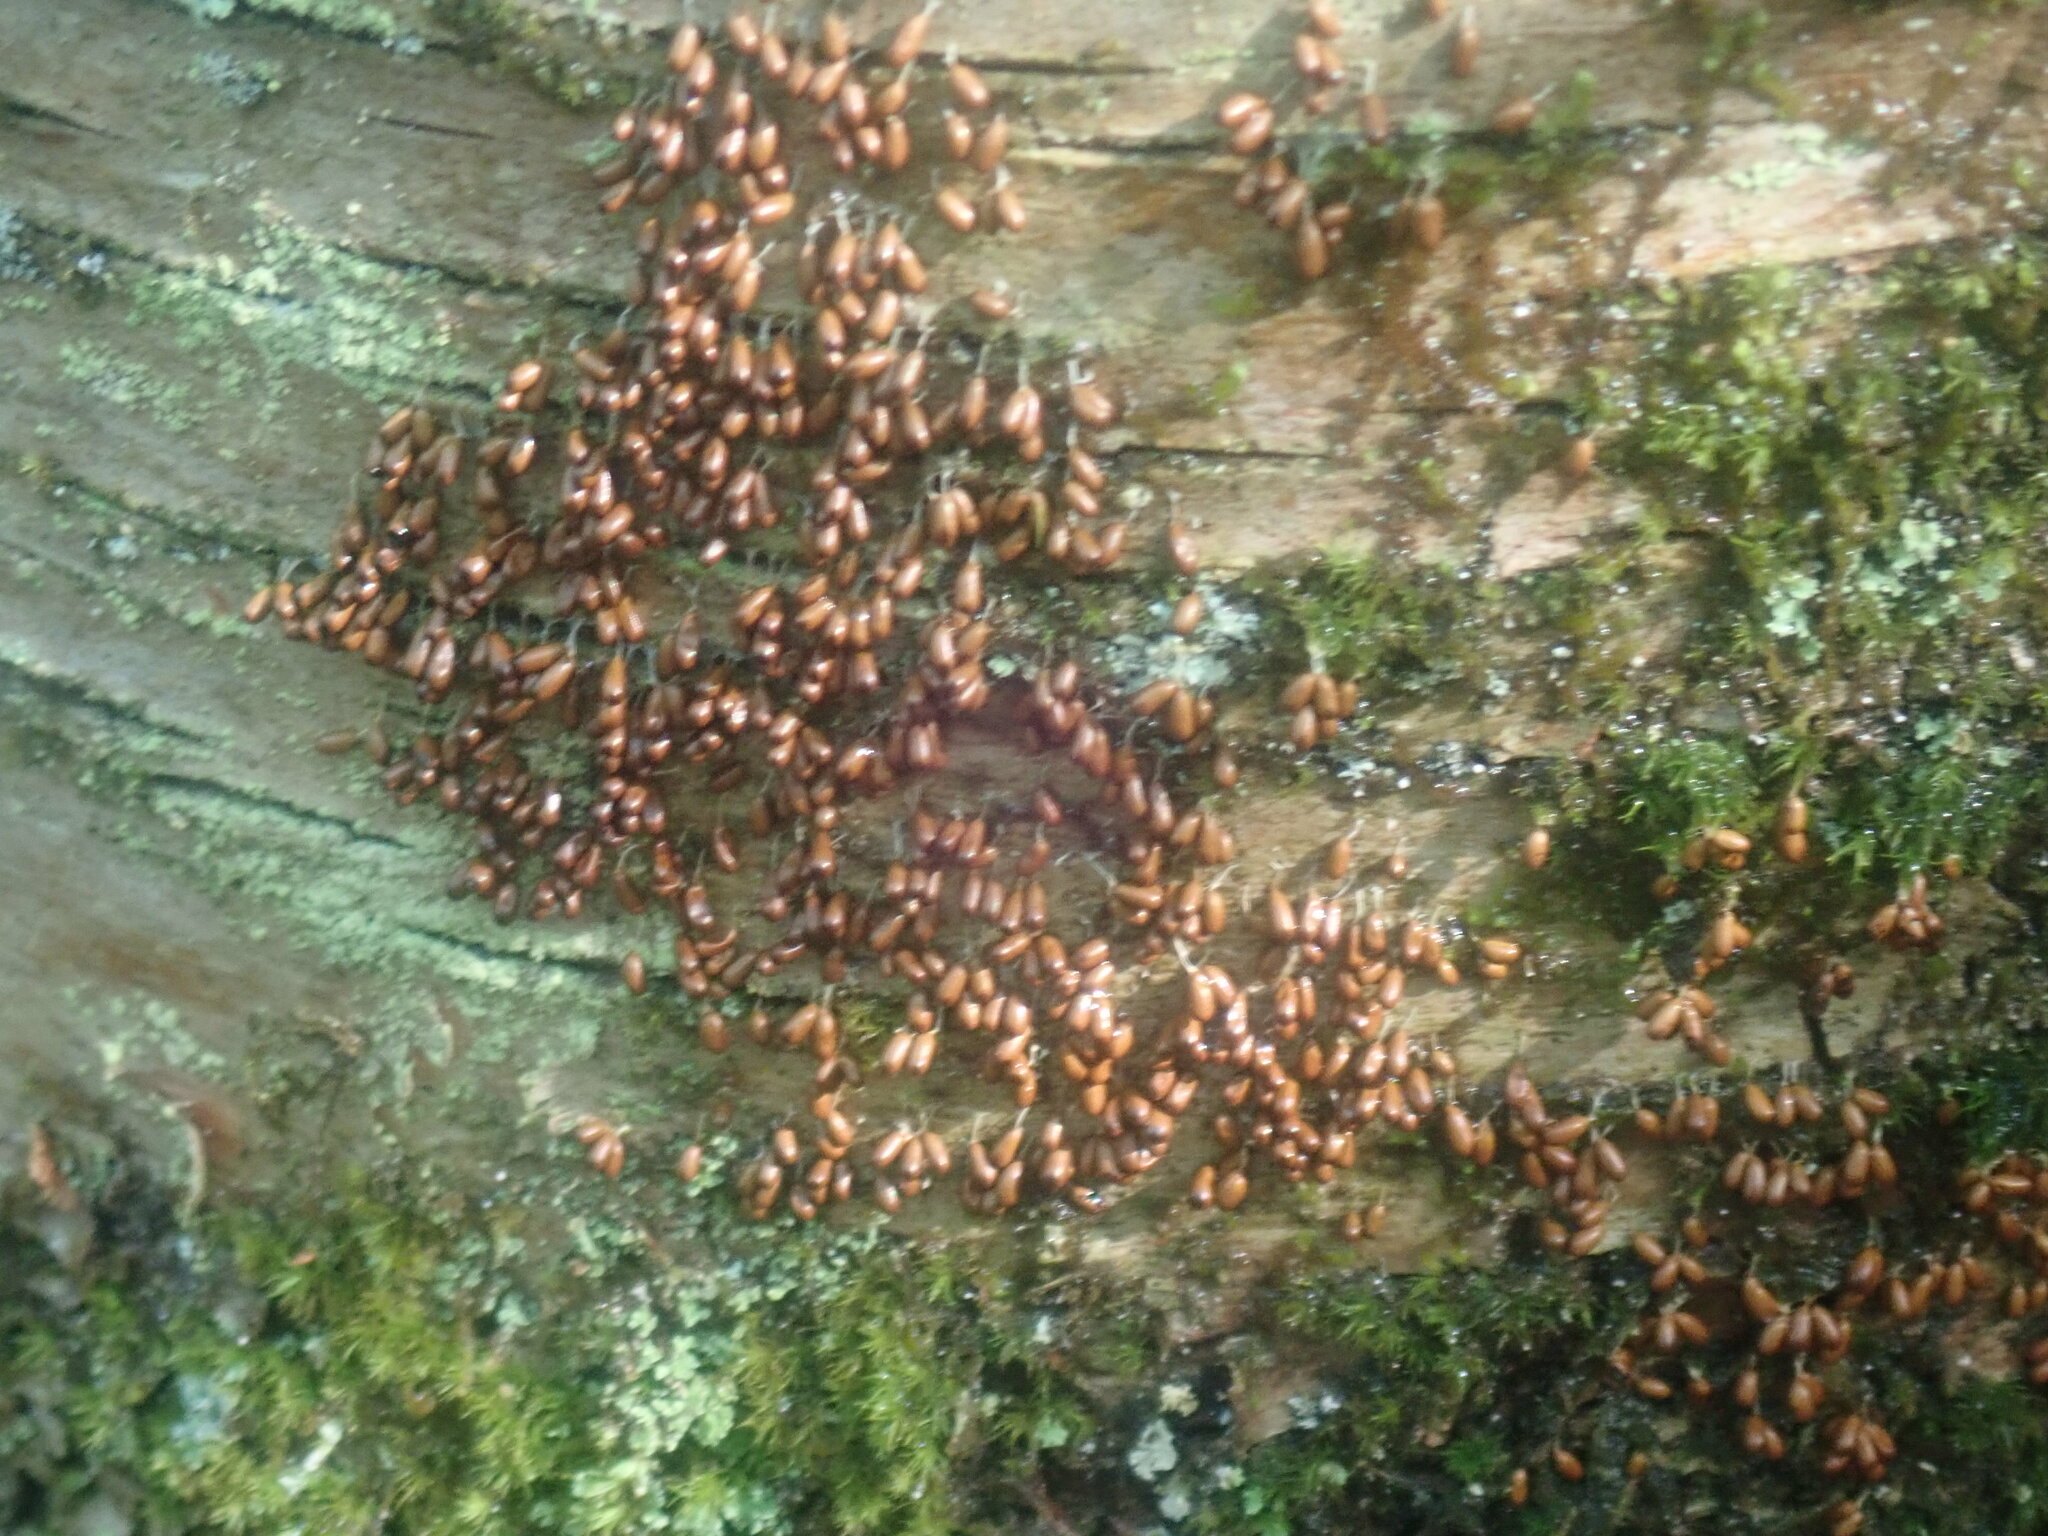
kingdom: Protozoa
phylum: Mycetozoa
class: Myxomycetes
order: Physarales
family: Physaraceae
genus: Leocarpus
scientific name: Leocarpus fragilis
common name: Insect-egg slime
